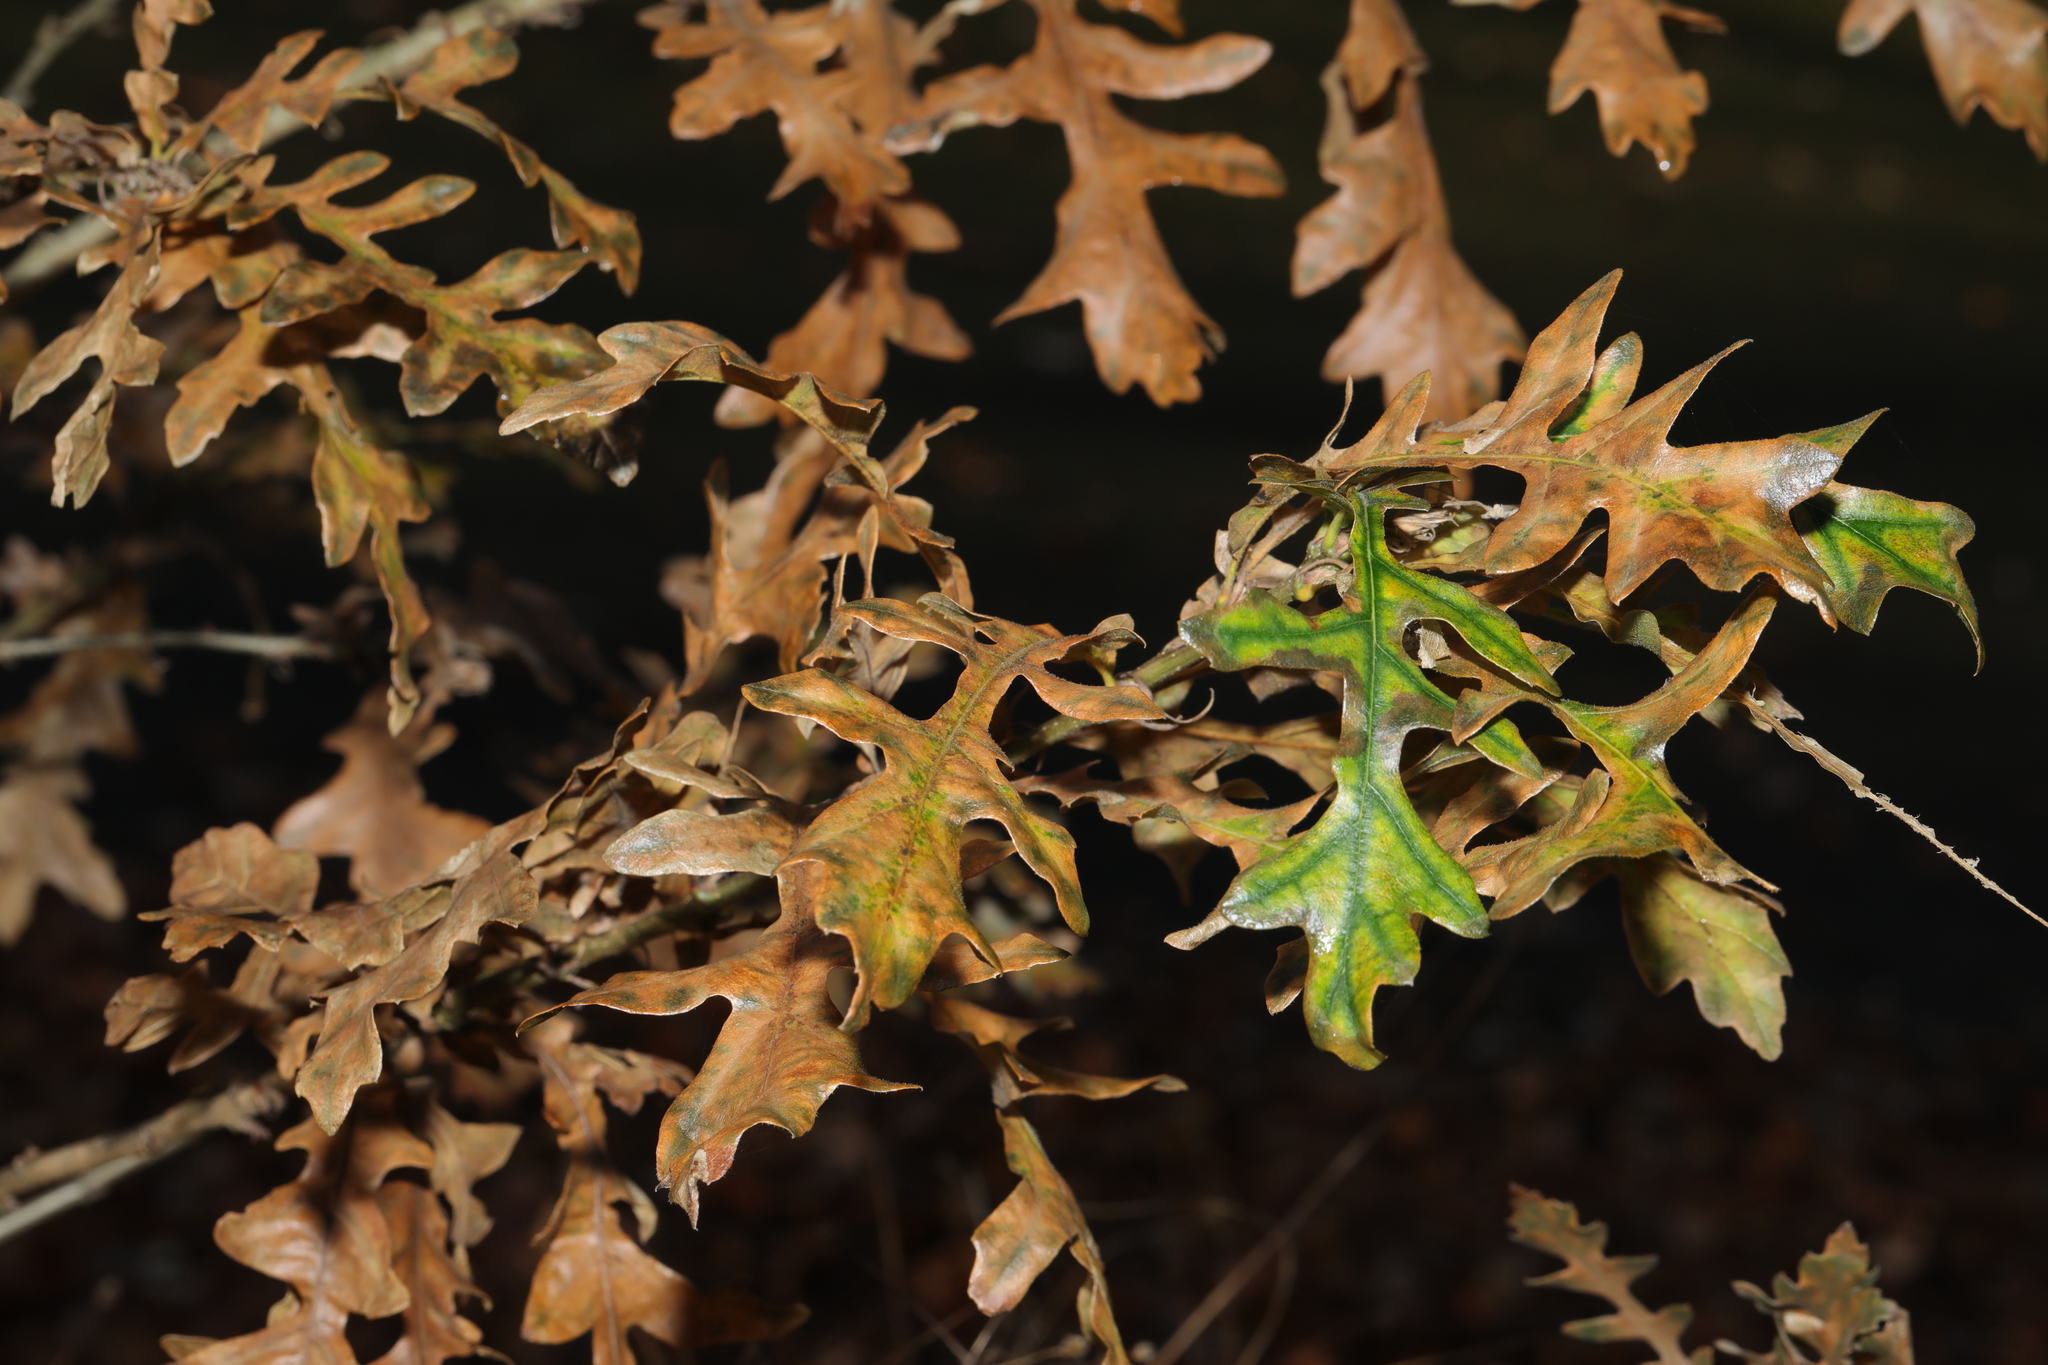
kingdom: Plantae
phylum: Tracheophyta
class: Magnoliopsida
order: Fagales
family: Fagaceae
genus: Quercus
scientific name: Quercus cerris
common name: Turkey oak
